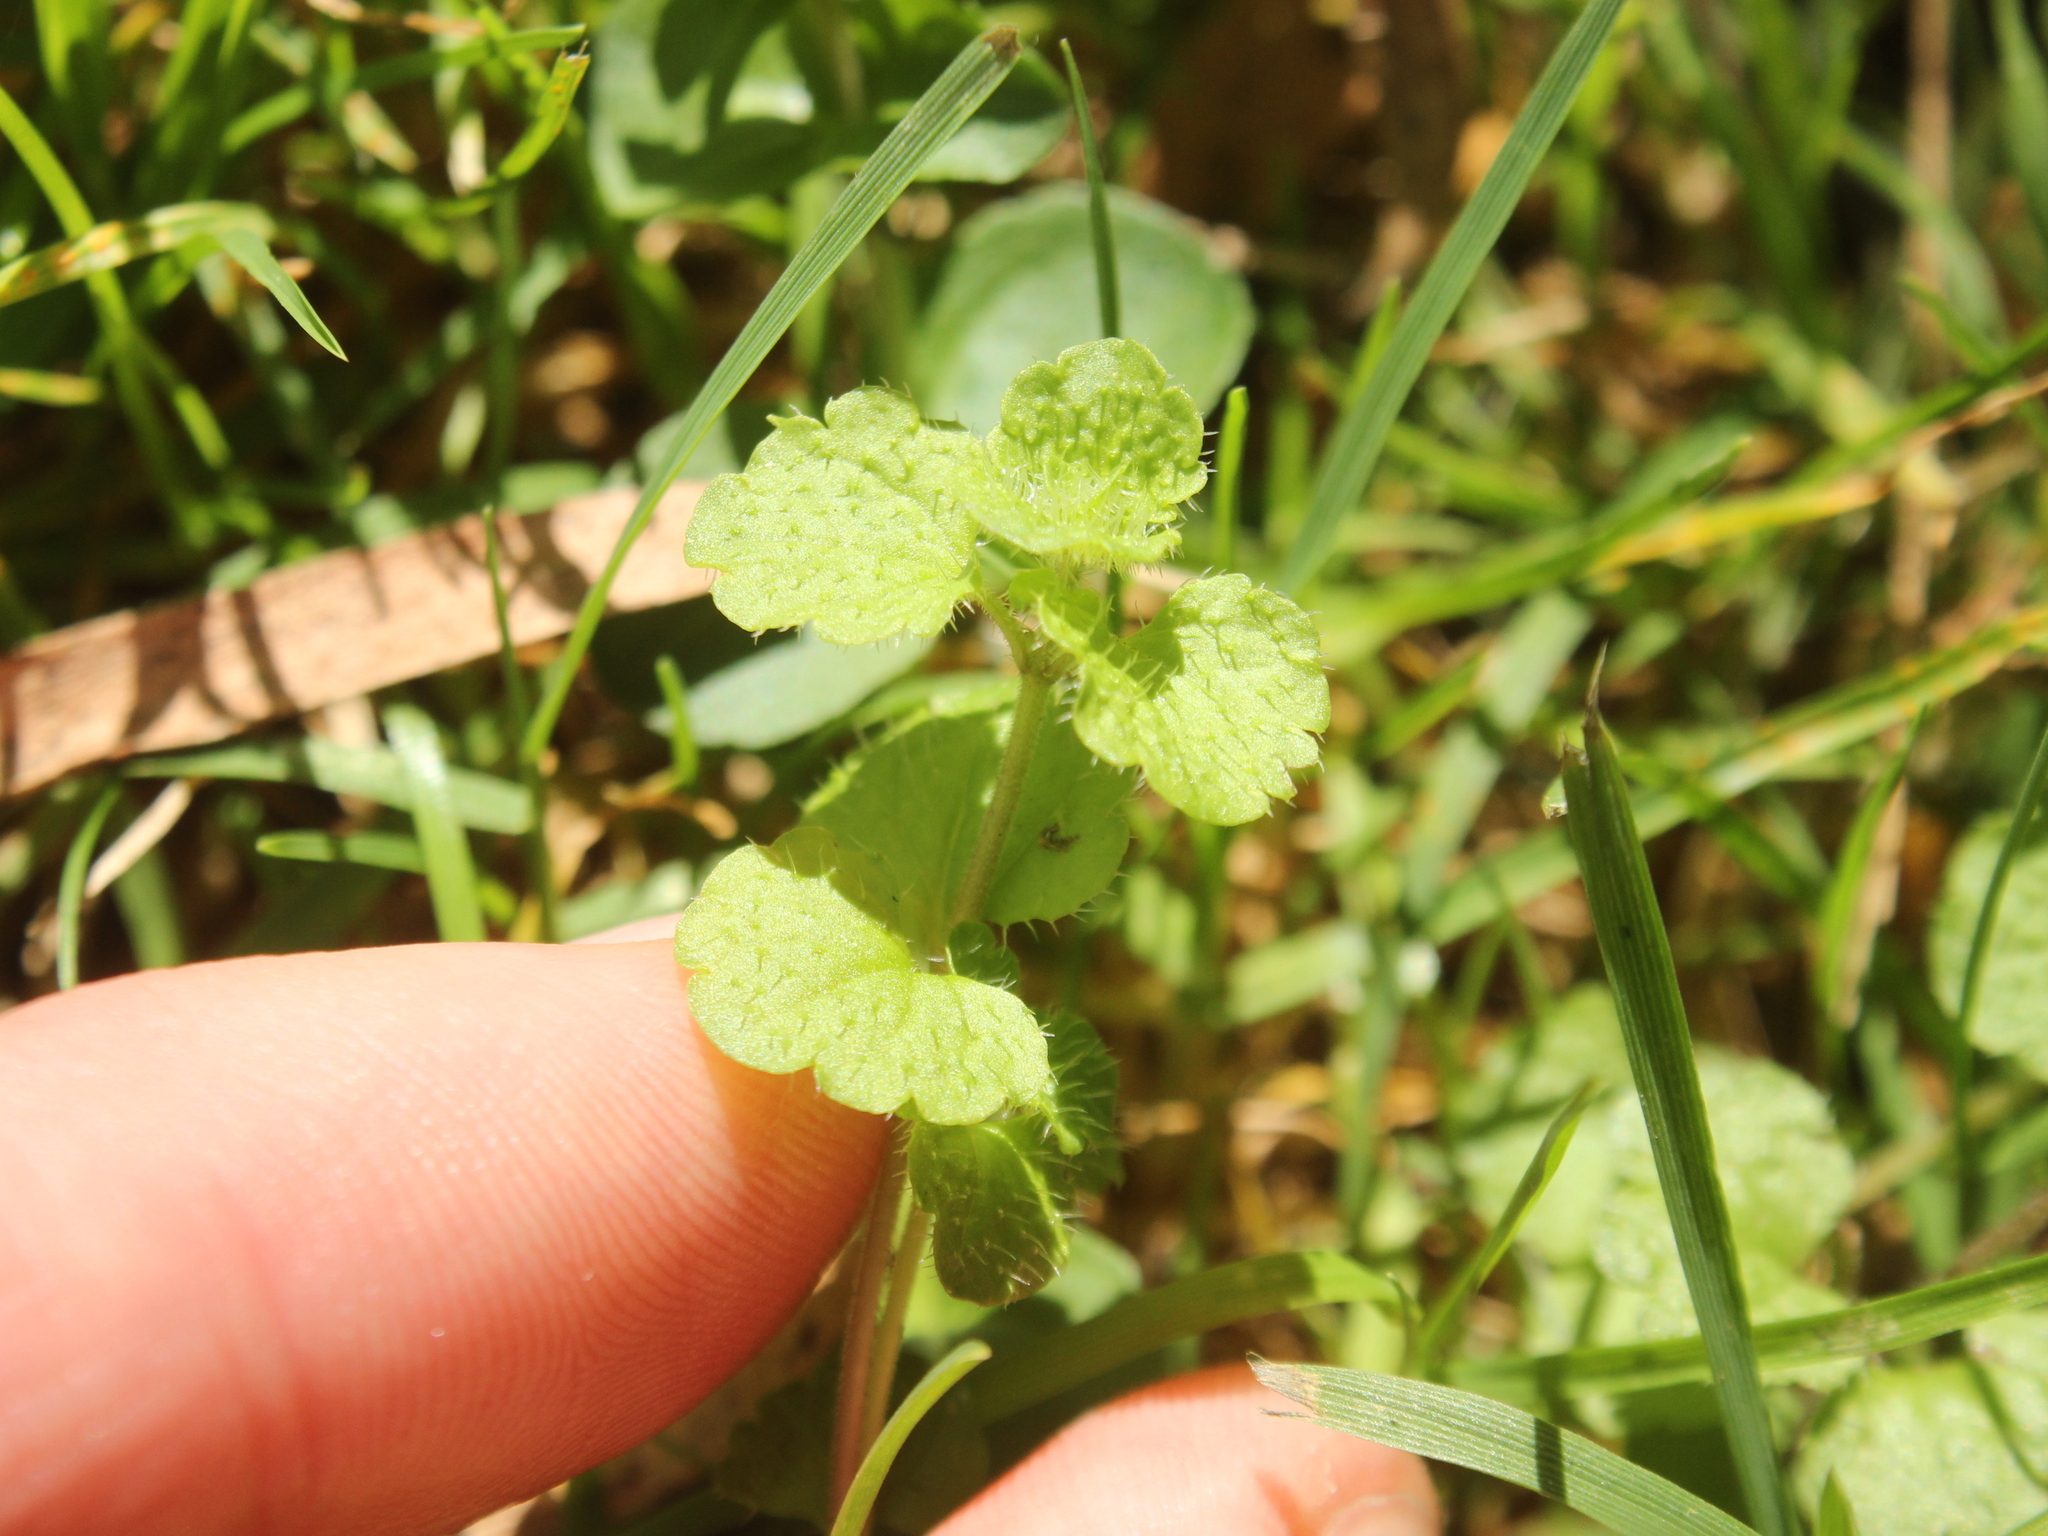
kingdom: Plantae
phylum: Tracheophyta
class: Magnoliopsida
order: Lamiales
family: Plantaginaceae
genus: Veronica
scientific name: Veronica filiformis
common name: Slender speedwell
